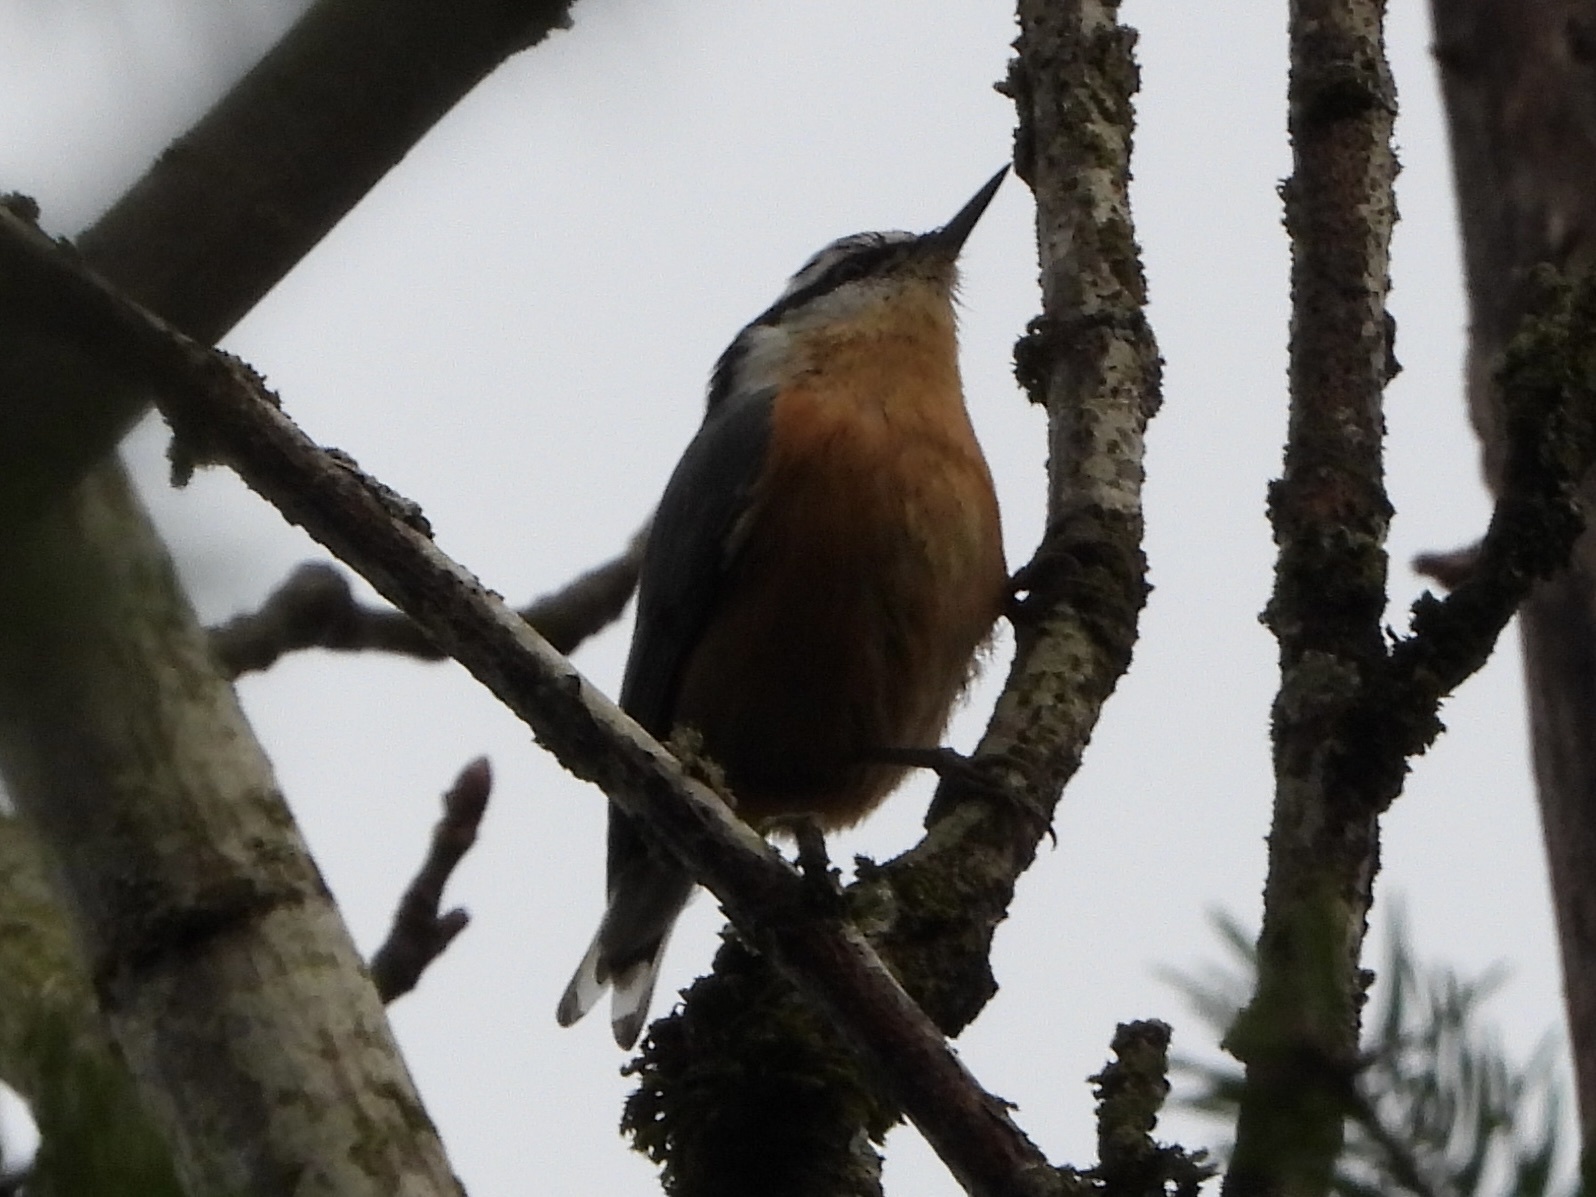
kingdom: Animalia
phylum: Chordata
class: Aves
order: Passeriformes
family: Sittidae
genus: Sitta
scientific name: Sitta canadensis
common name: Red-breasted nuthatch
